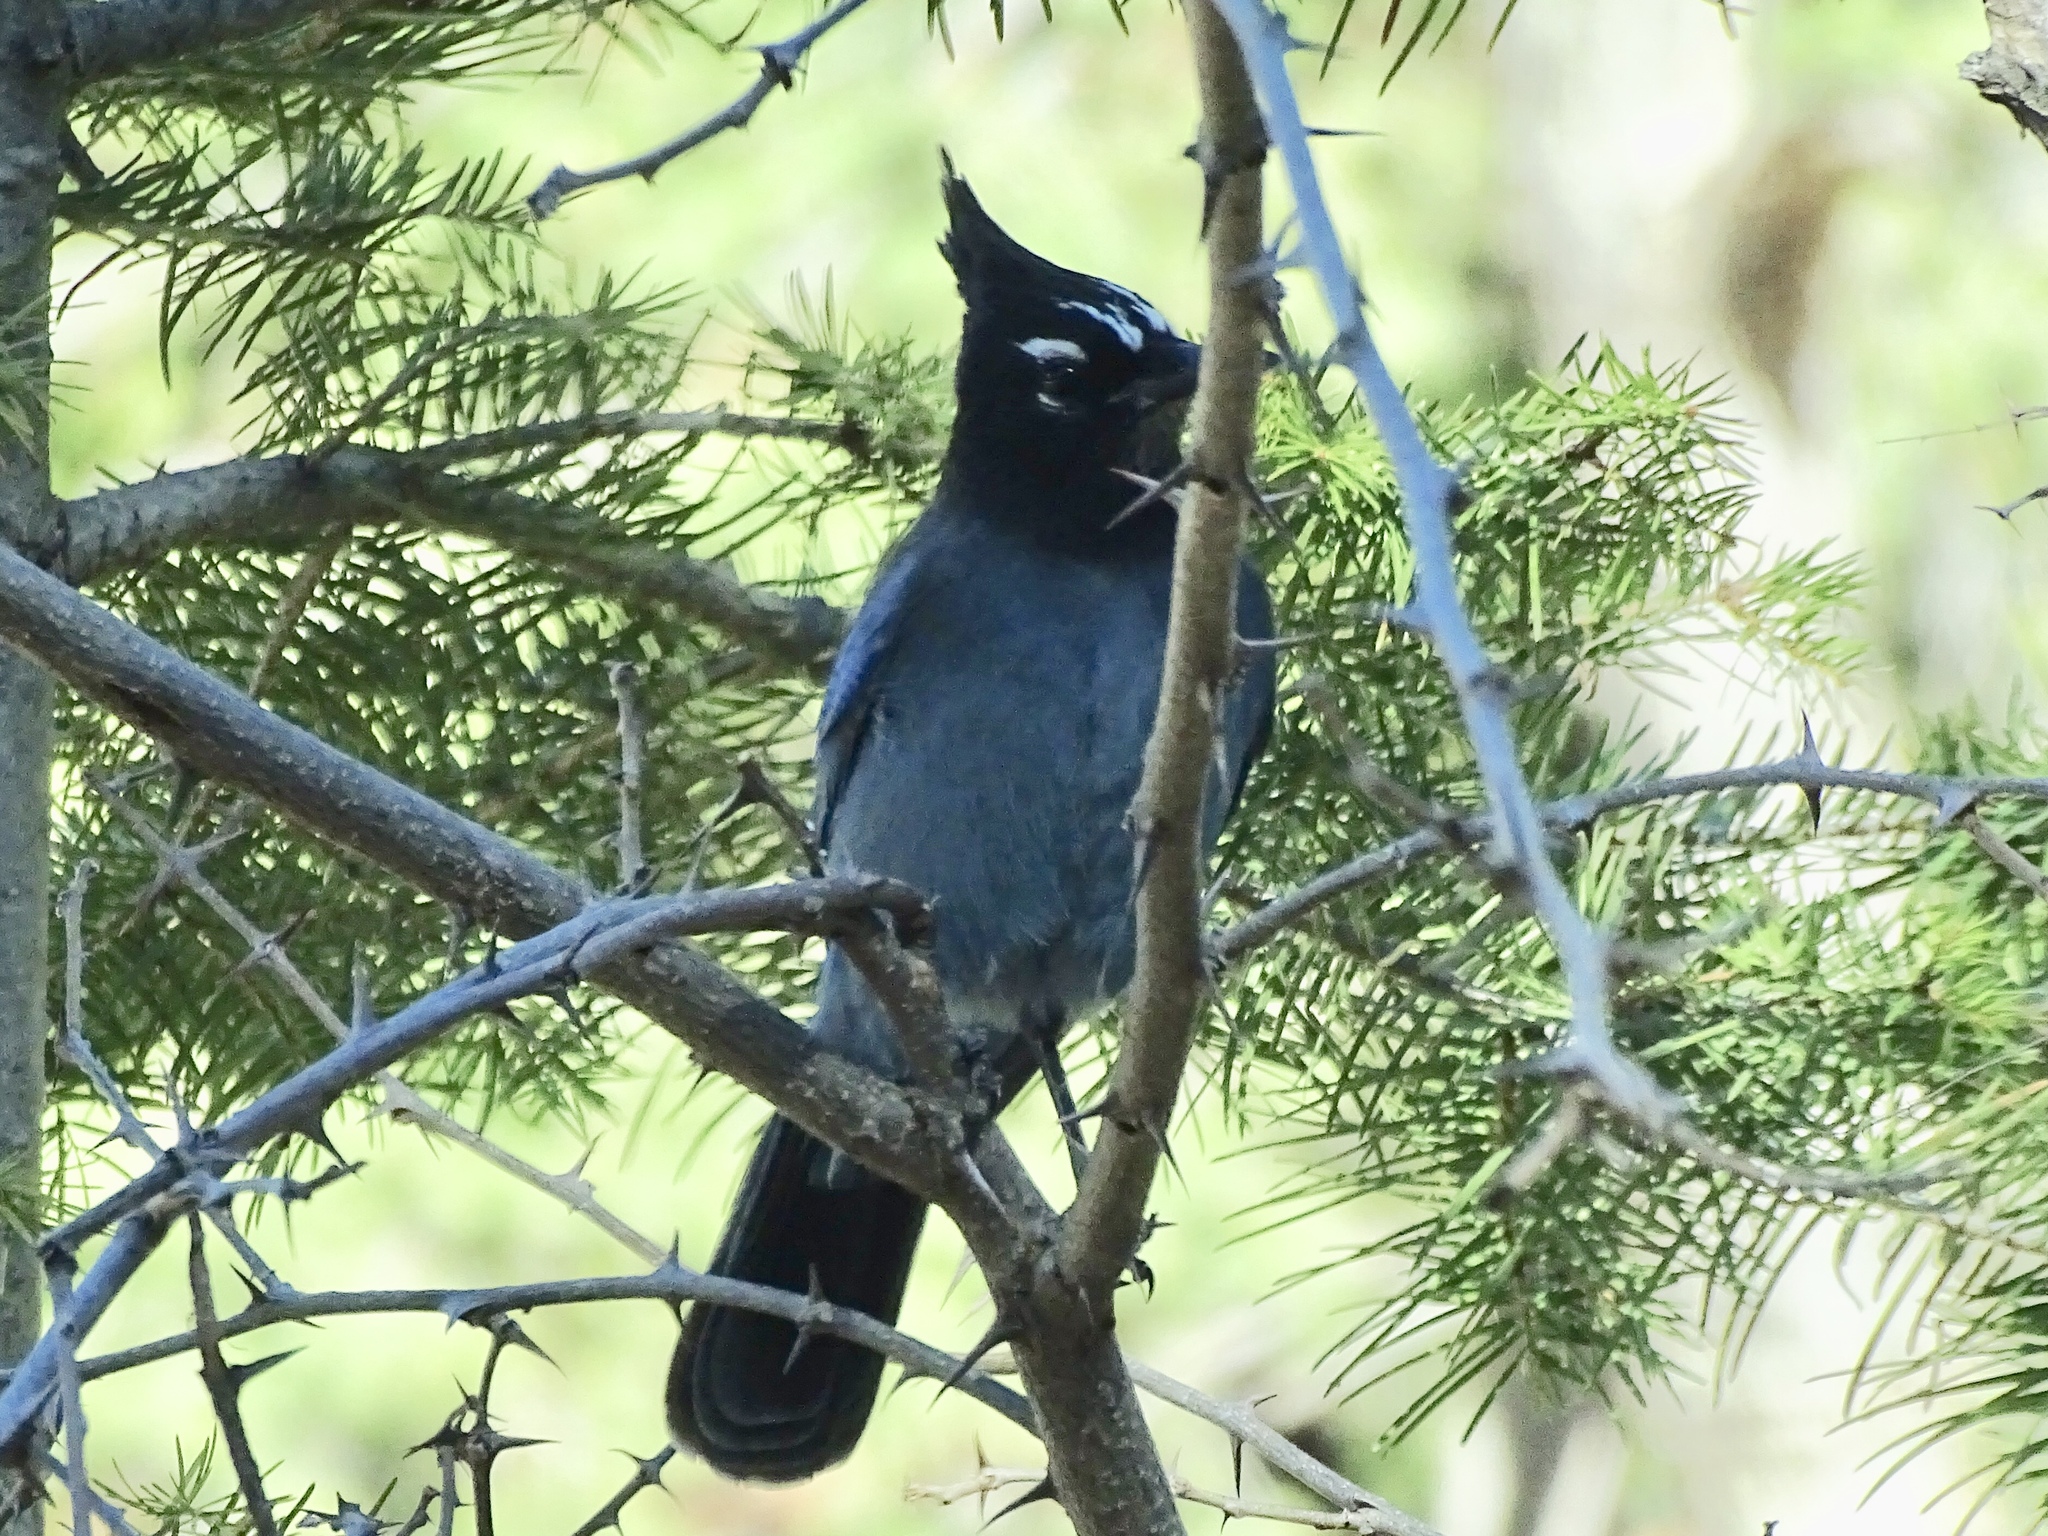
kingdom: Animalia
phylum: Chordata
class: Aves
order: Passeriformes
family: Corvidae
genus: Cyanocitta
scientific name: Cyanocitta stelleri
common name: Steller's jay
